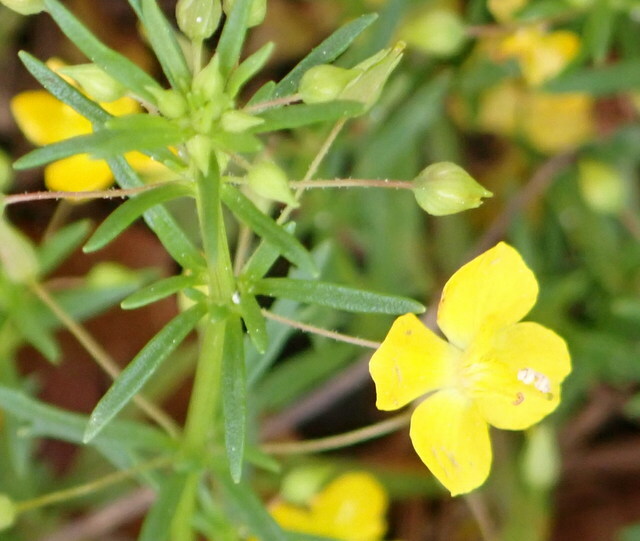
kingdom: Plantae
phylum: Tracheophyta
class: Magnoliopsida
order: Lamiales
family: Plantaginaceae
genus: Scoparia
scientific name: Scoparia montevidensis
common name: Broomwort
